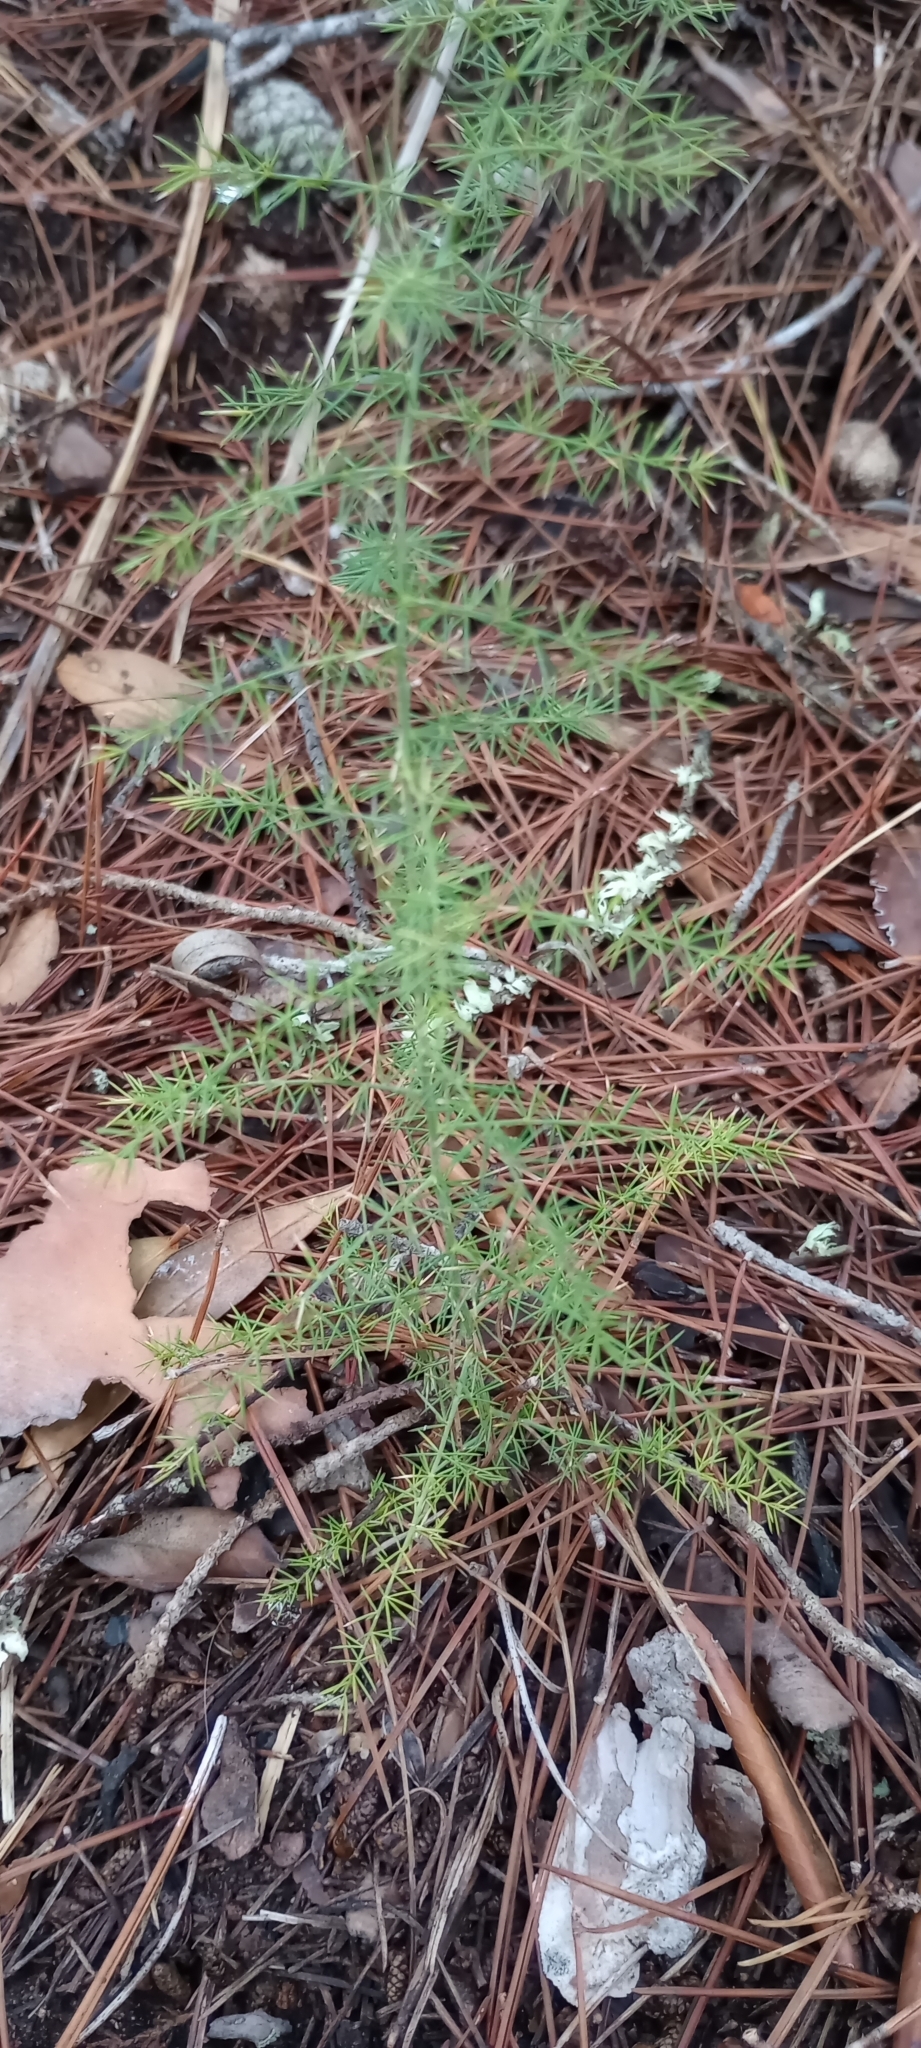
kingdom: Plantae
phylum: Tracheophyta
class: Liliopsida
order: Asparagales
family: Asparagaceae
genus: Asparagus
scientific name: Asparagus acutifolius
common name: Wild asparagus
